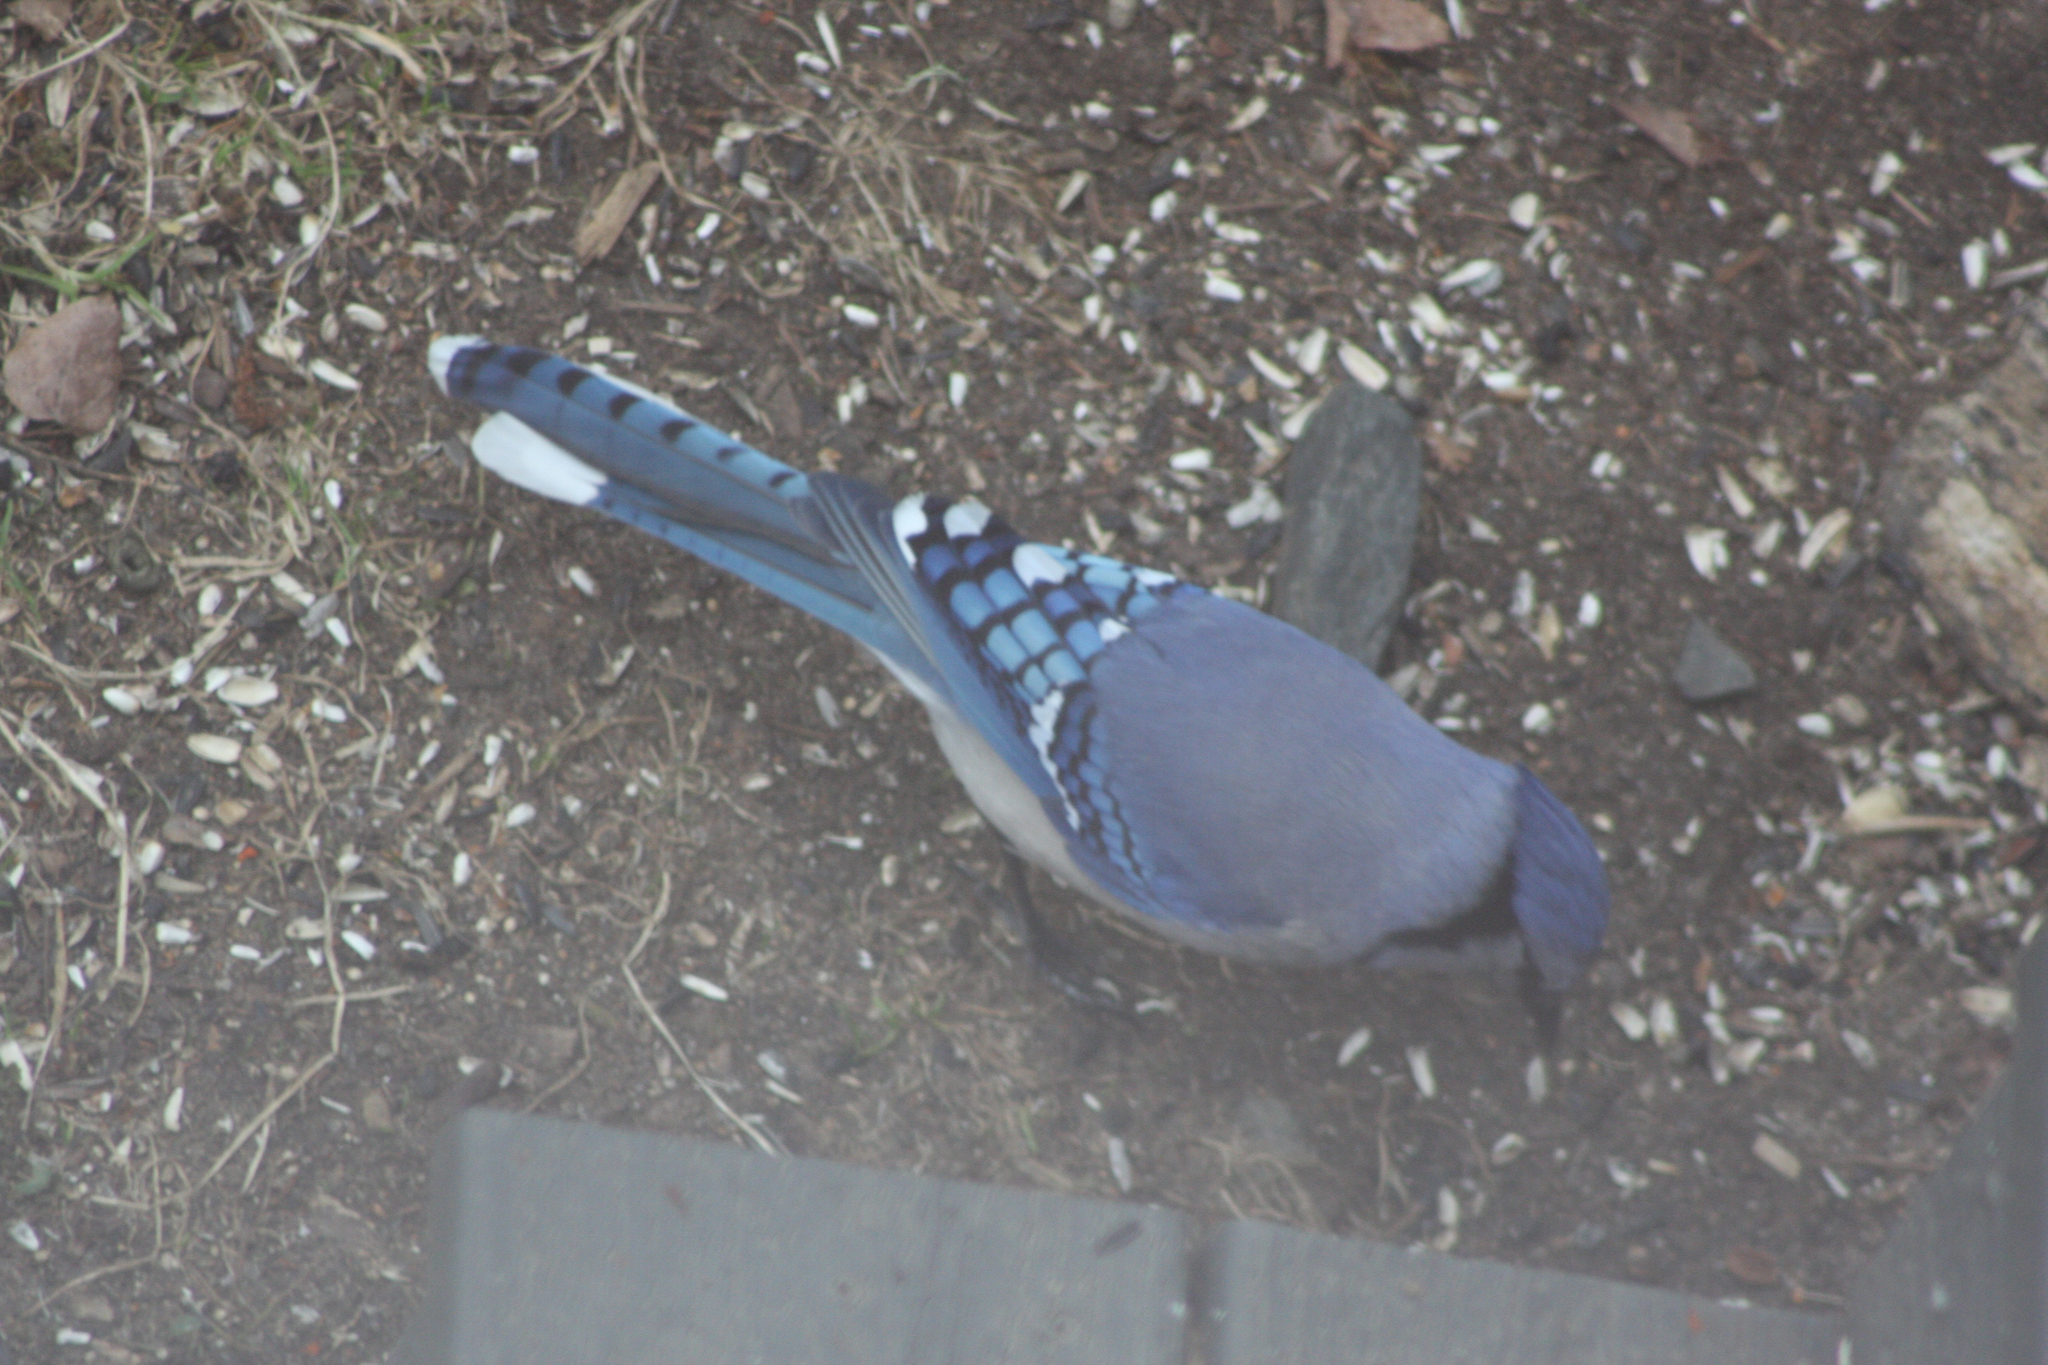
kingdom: Animalia
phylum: Chordata
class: Aves
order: Passeriformes
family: Corvidae
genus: Cyanocitta
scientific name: Cyanocitta cristata
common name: Blue jay
